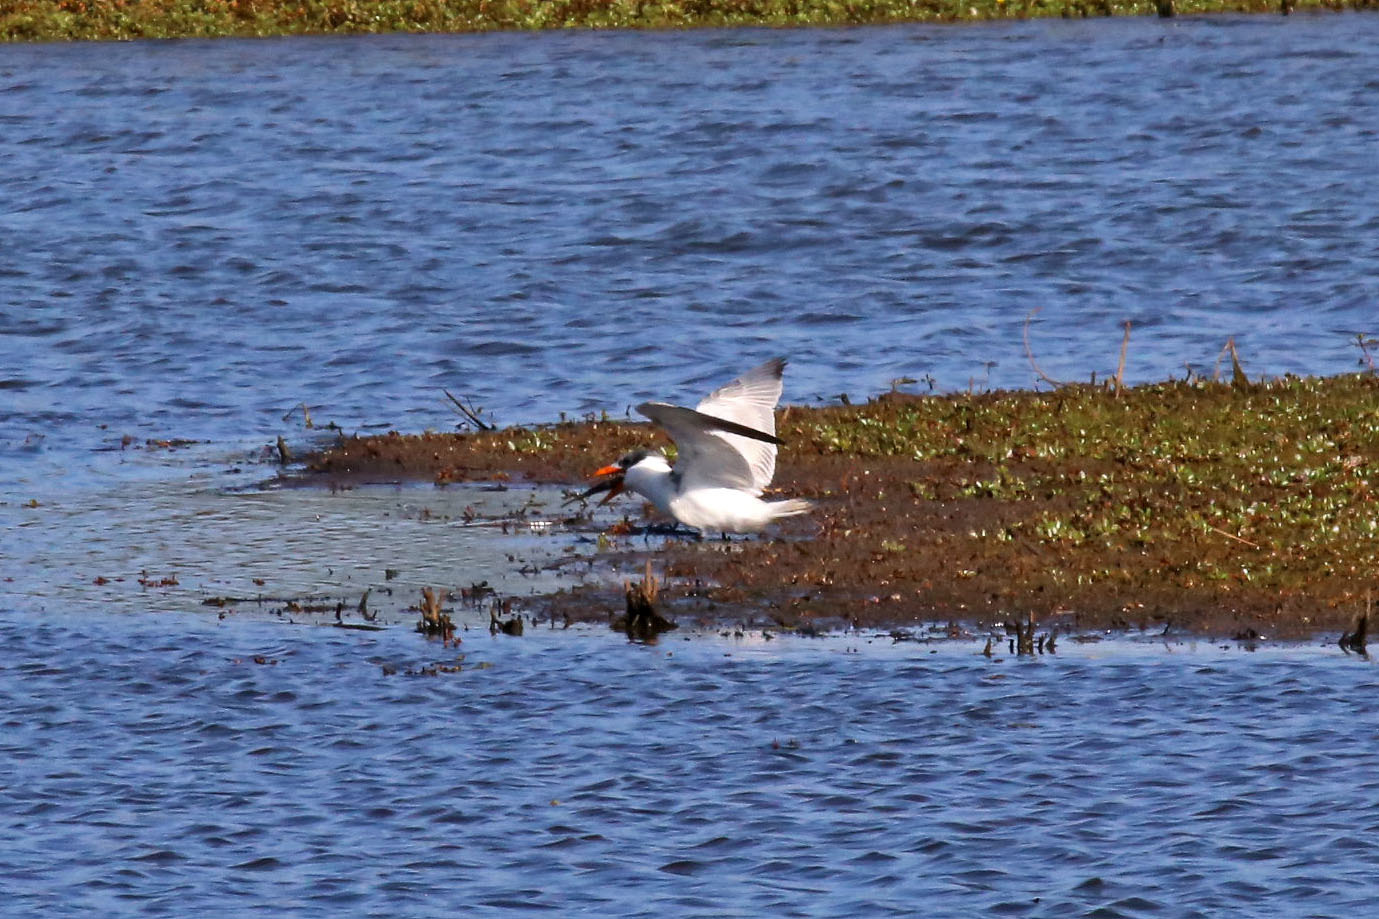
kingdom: Animalia
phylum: Chordata
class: Aves
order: Charadriiformes
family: Laridae
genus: Hydroprogne
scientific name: Hydroprogne caspia
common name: Caspian tern
